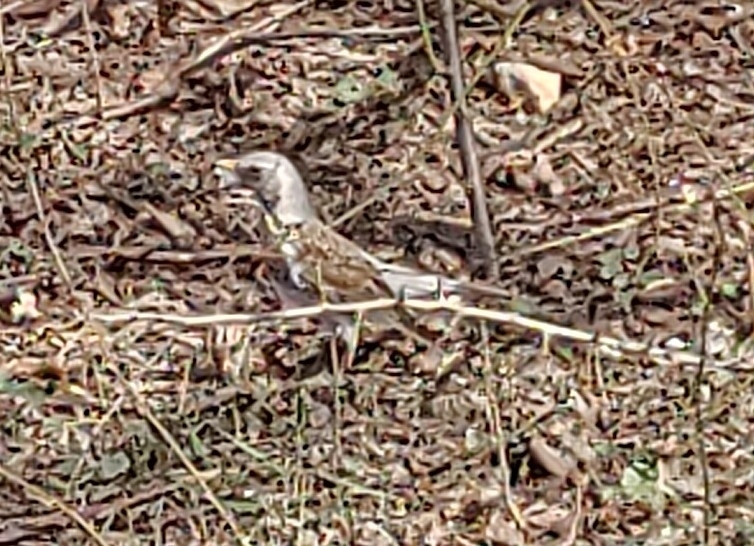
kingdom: Animalia
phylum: Chordata
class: Aves
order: Passeriformes
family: Turdidae
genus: Turdus
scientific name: Turdus pilaris
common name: Fieldfare
